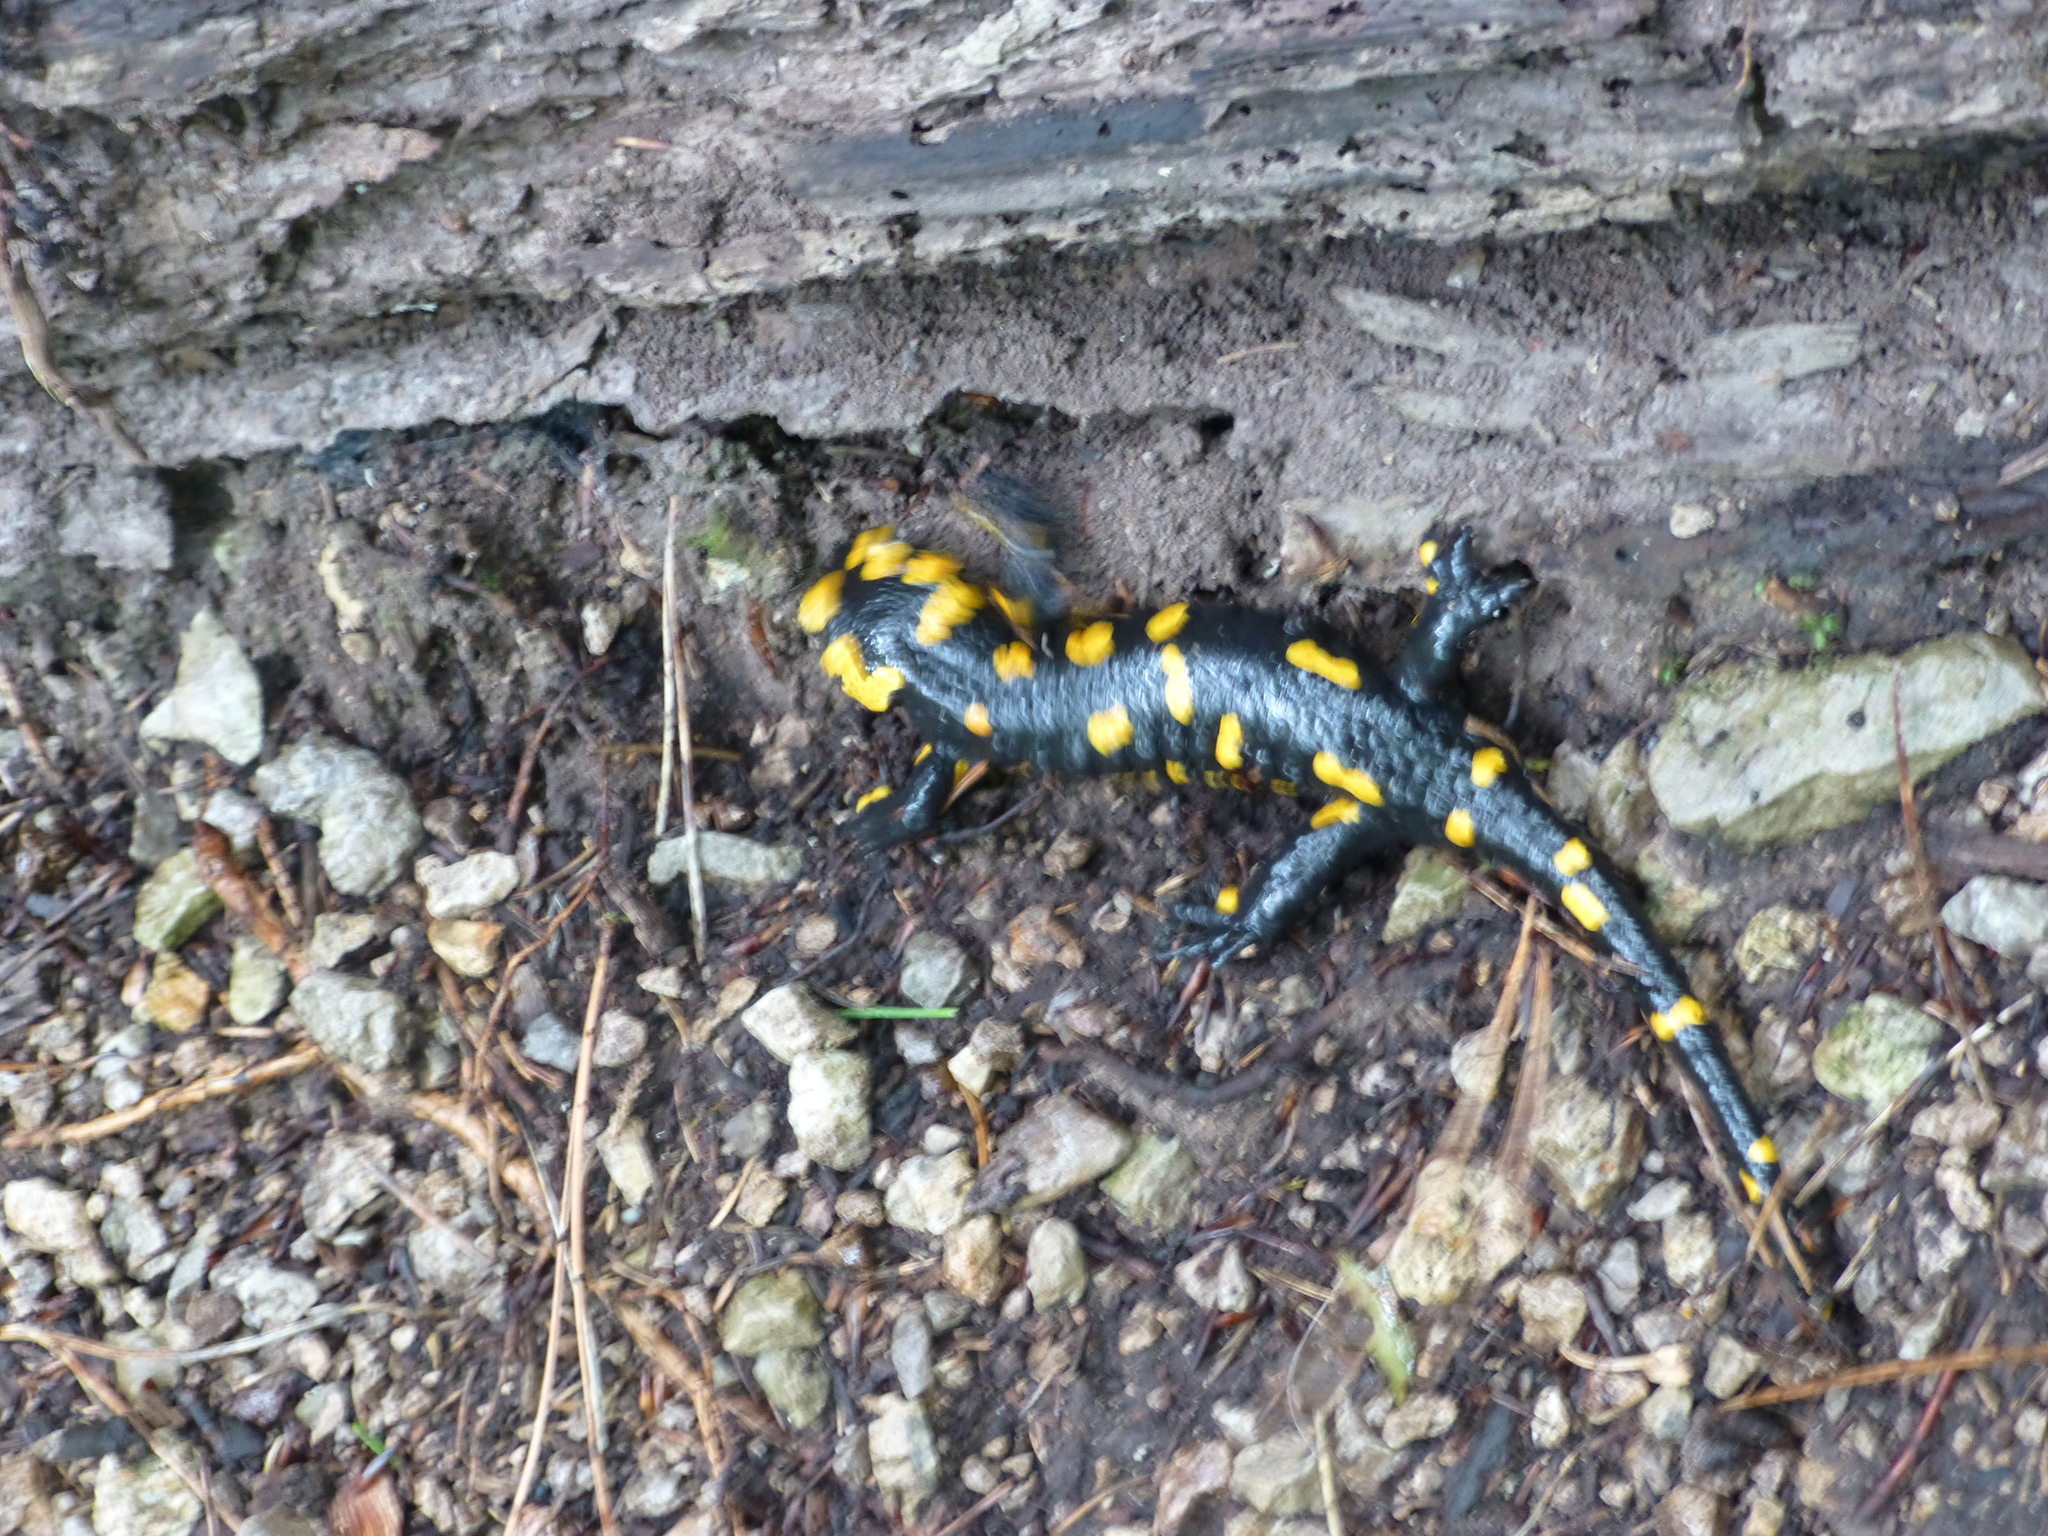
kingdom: Animalia
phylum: Chordata
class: Amphibia
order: Caudata
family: Salamandridae
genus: Salamandra
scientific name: Salamandra salamandra
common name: Fire salamander
